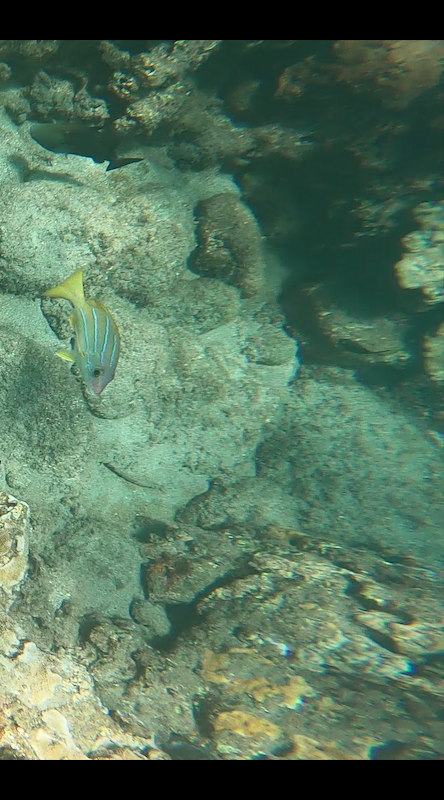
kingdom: Animalia
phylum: Chordata
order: Perciformes
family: Lutjanidae
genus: Lutjanus
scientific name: Lutjanus kasmira
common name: Common bluestripe snapper
